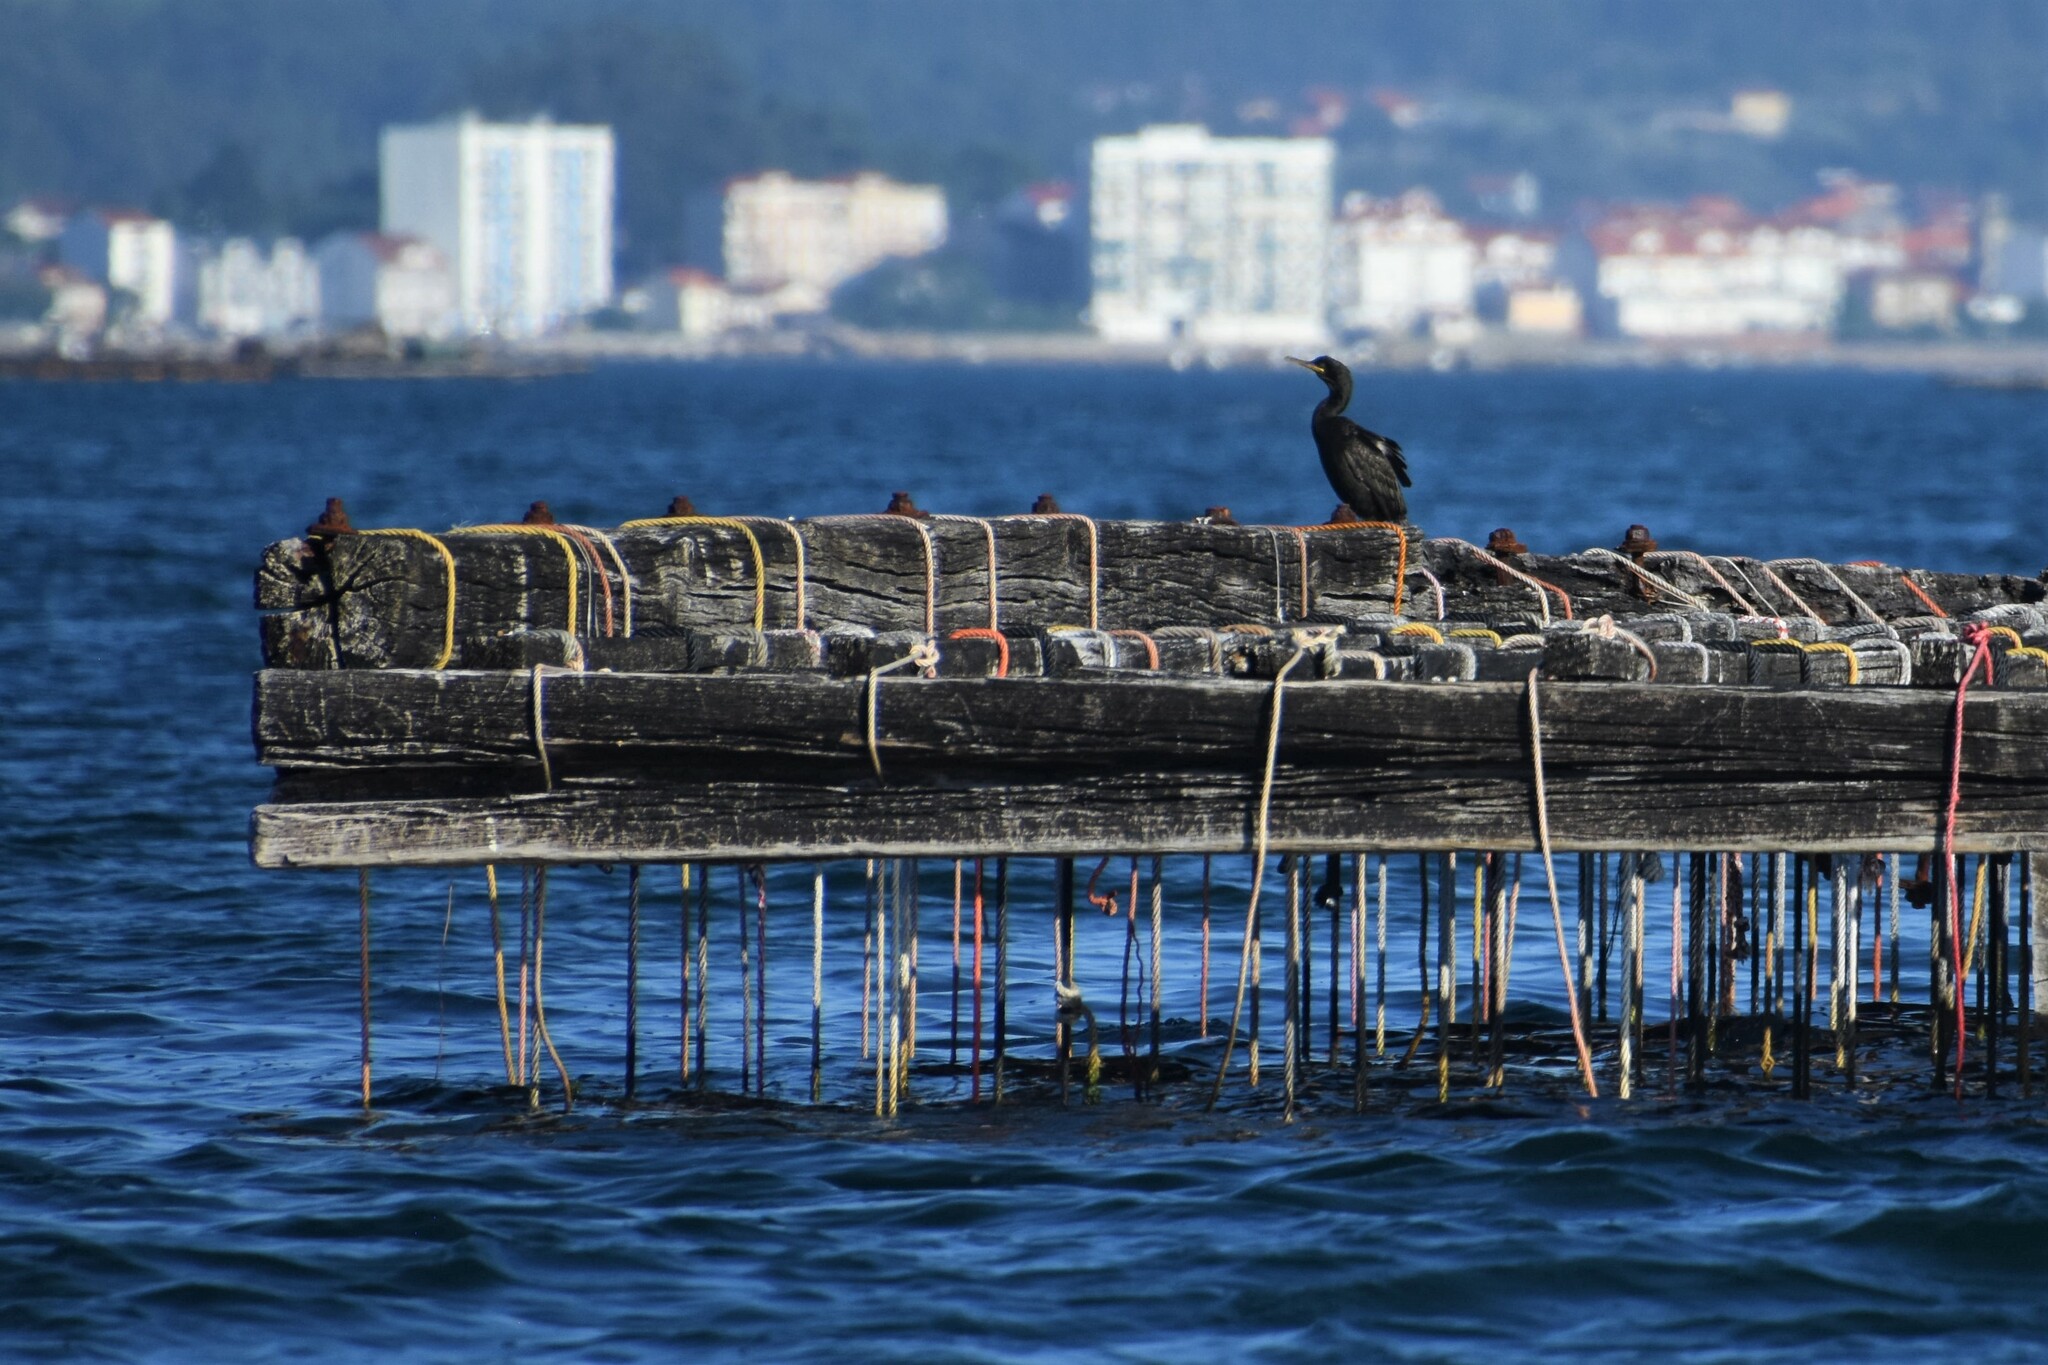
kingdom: Animalia
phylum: Chordata
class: Aves
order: Suliformes
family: Phalacrocoracidae
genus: Phalacrocorax
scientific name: Phalacrocorax aristotelis
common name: European shag
